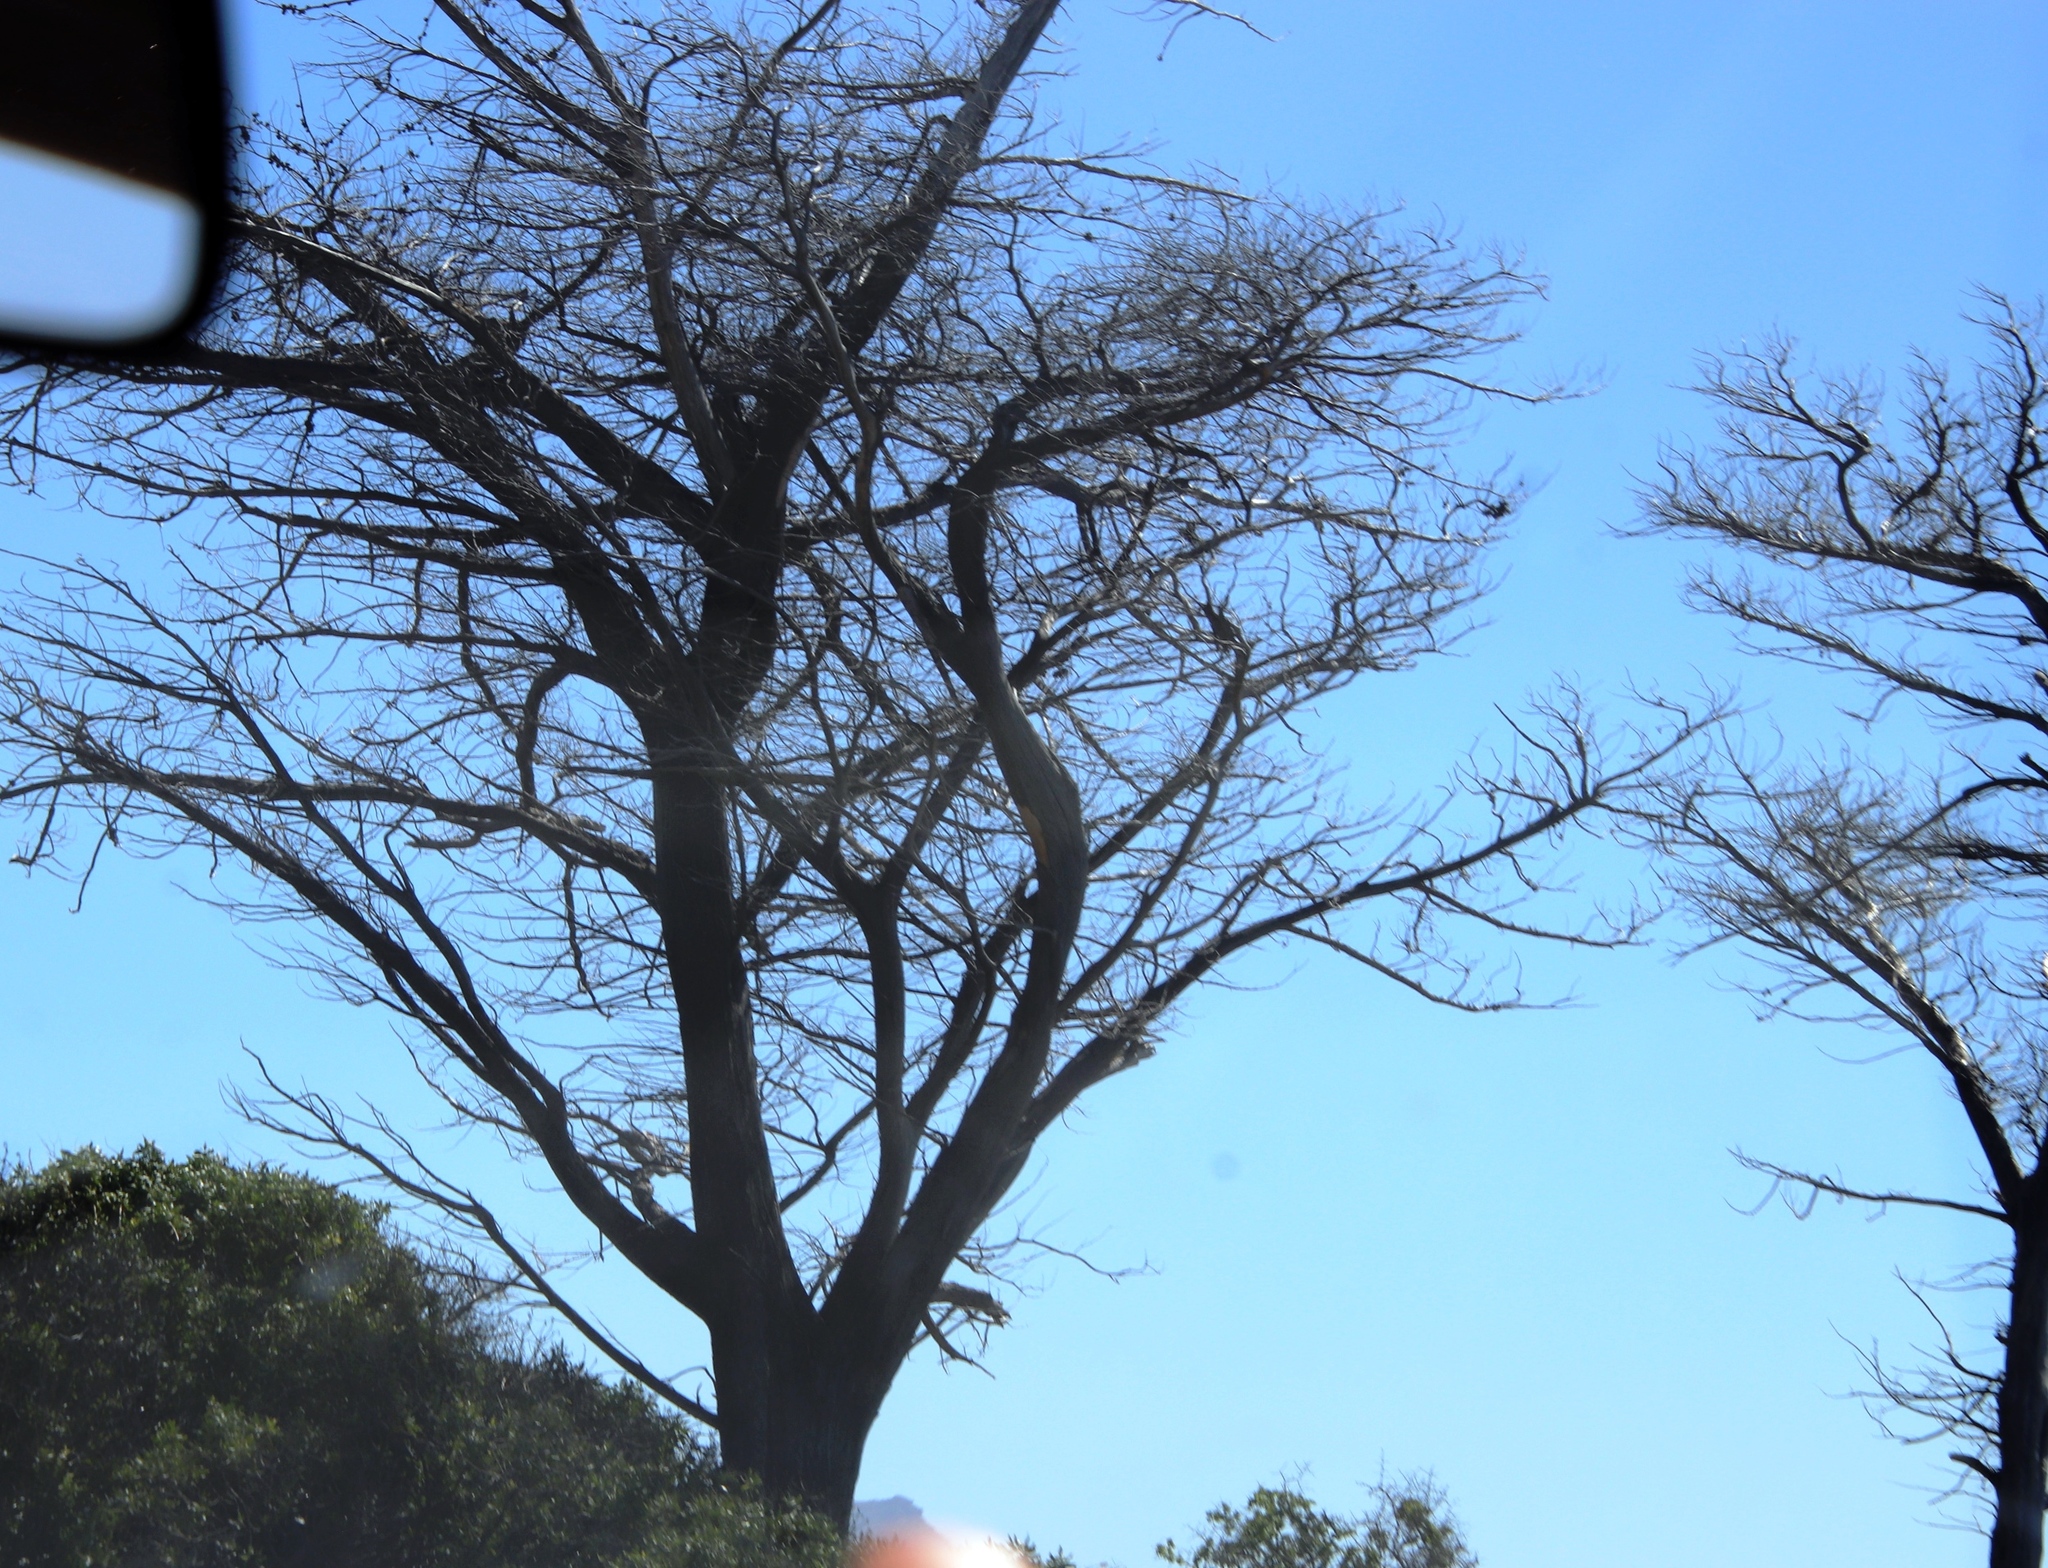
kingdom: Plantae
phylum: Tracheophyta
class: Pinopsida
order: Pinales
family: Cupressaceae
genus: Cupressus
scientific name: Cupressus macrocarpa
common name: Monterey cypress
